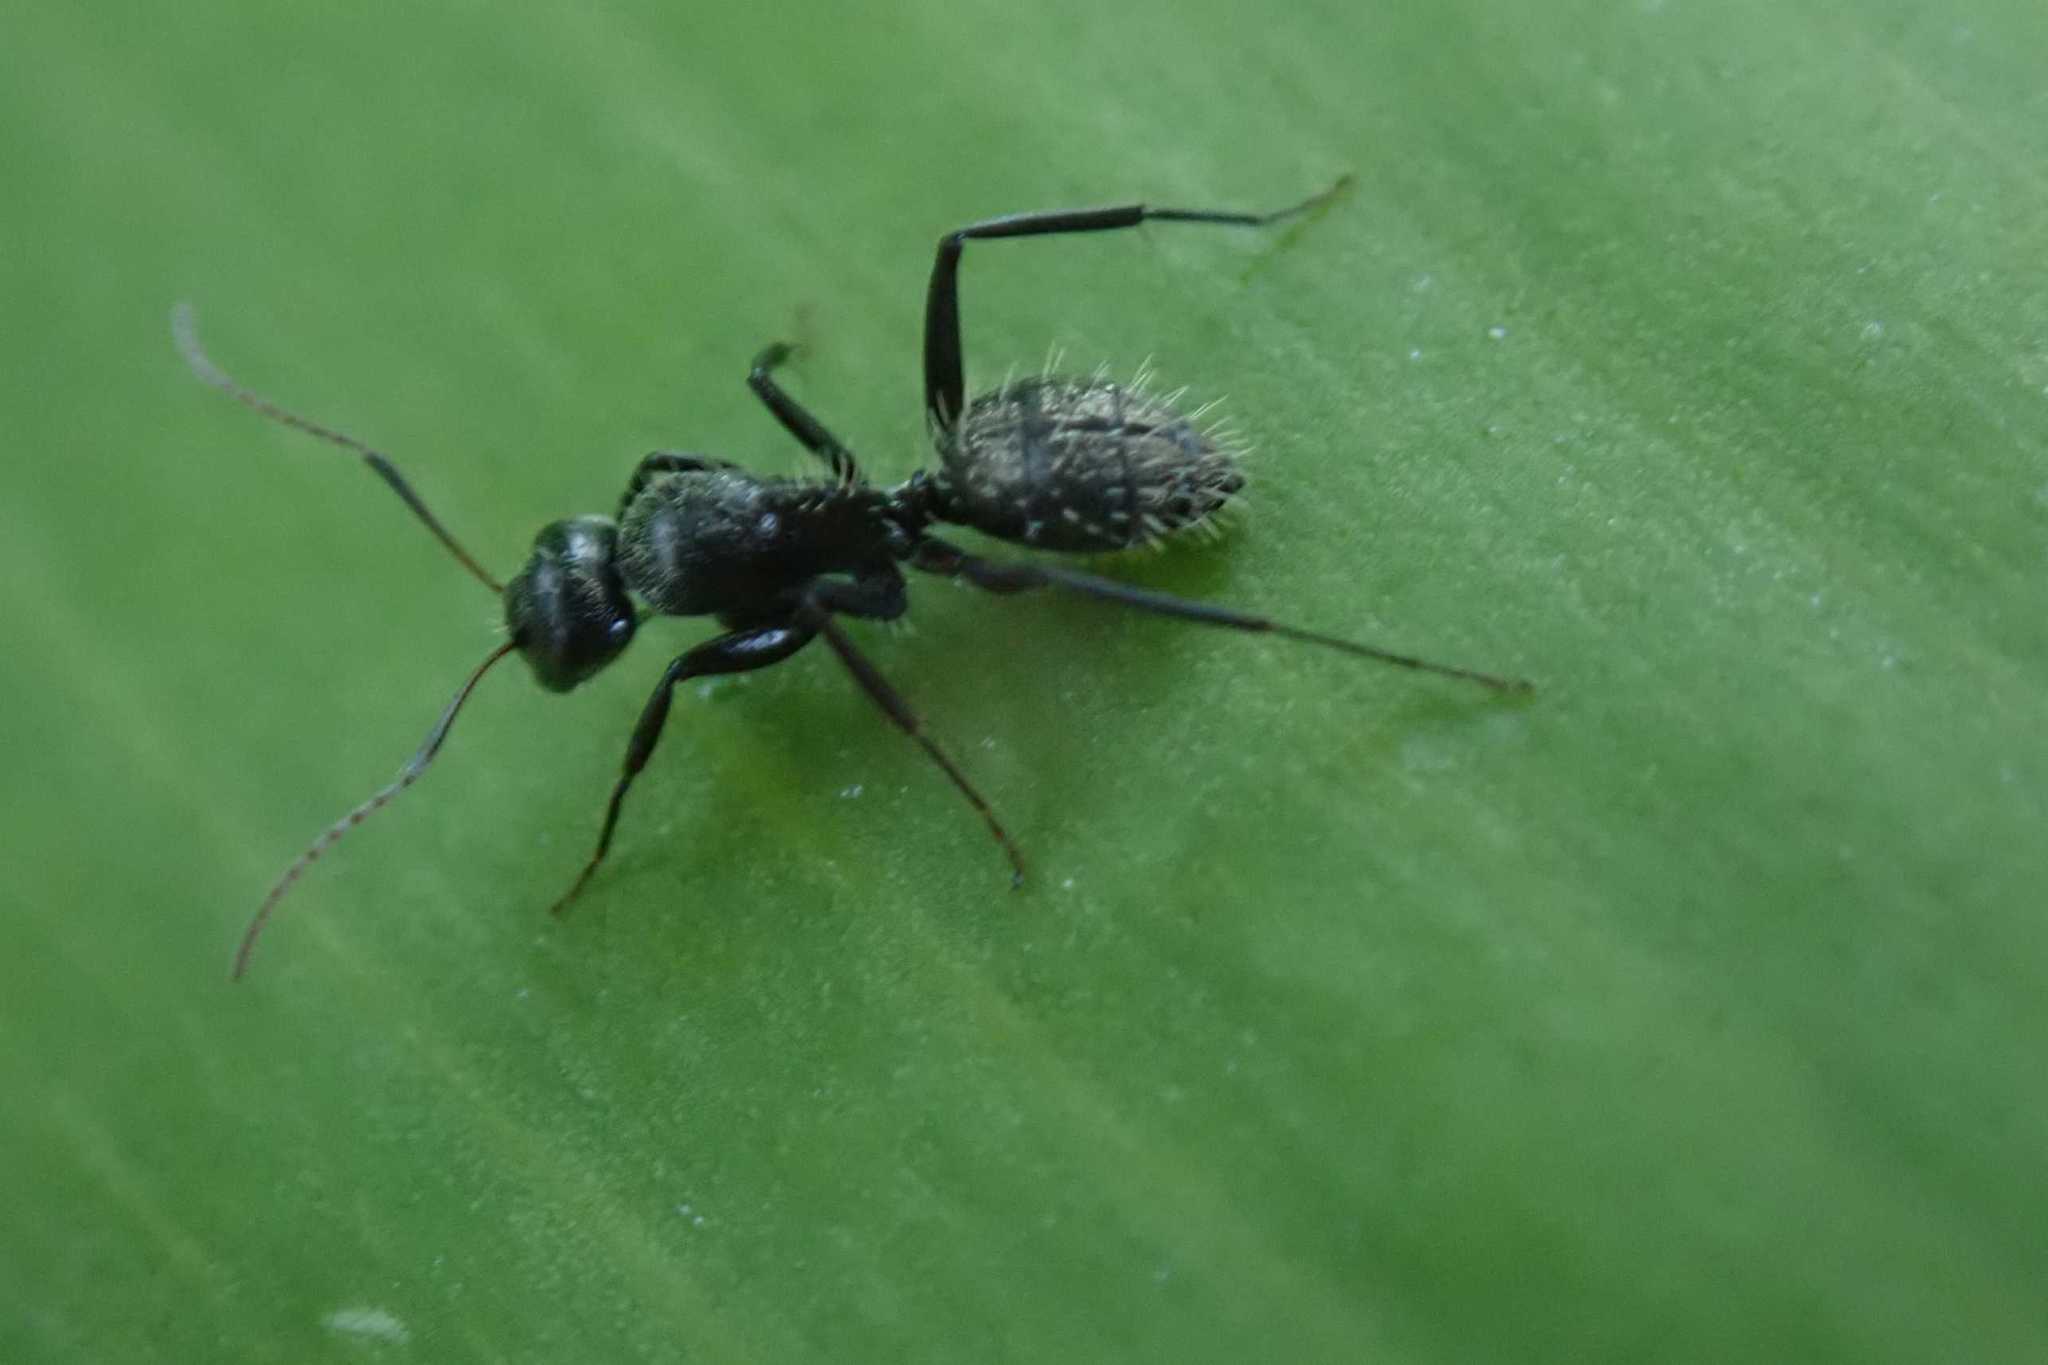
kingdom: Animalia
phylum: Arthropoda
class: Insecta
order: Hymenoptera
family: Formicidae
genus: Camponotus
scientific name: Camponotus amphidus
